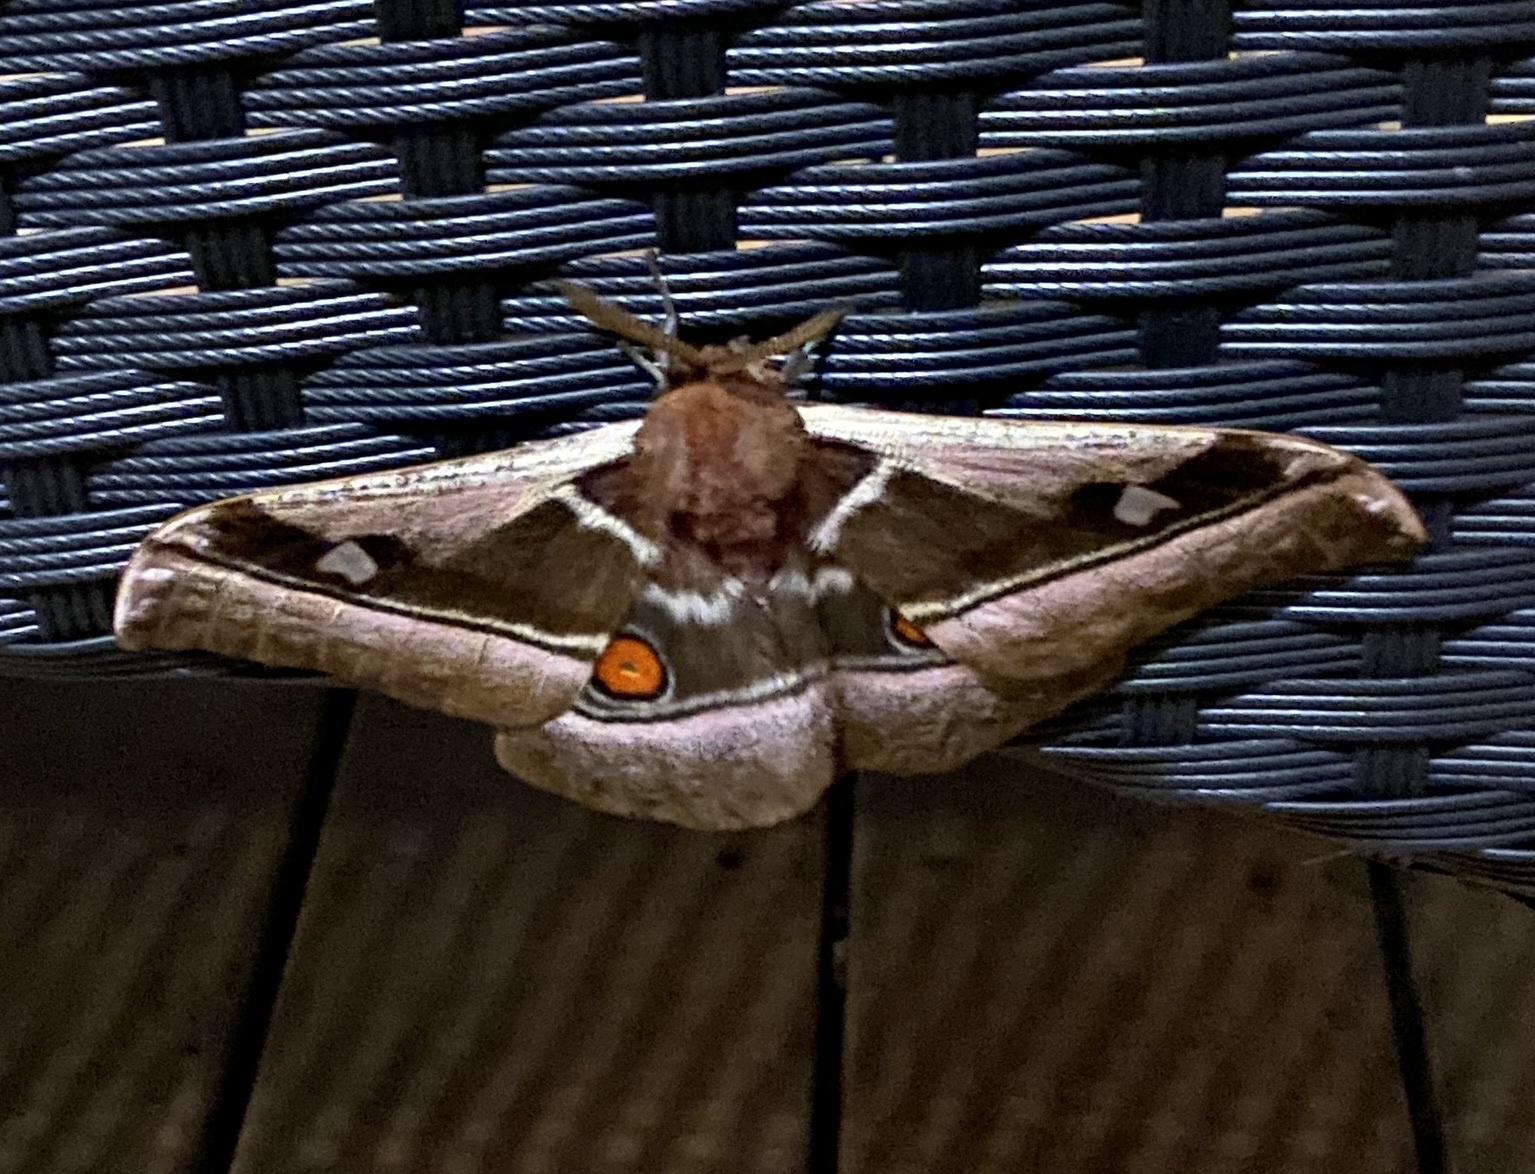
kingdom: Animalia
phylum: Arthropoda
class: Insecta
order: Lepidoptera
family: Saturniidae
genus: Bunaea
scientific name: Bunaea alcinoe
